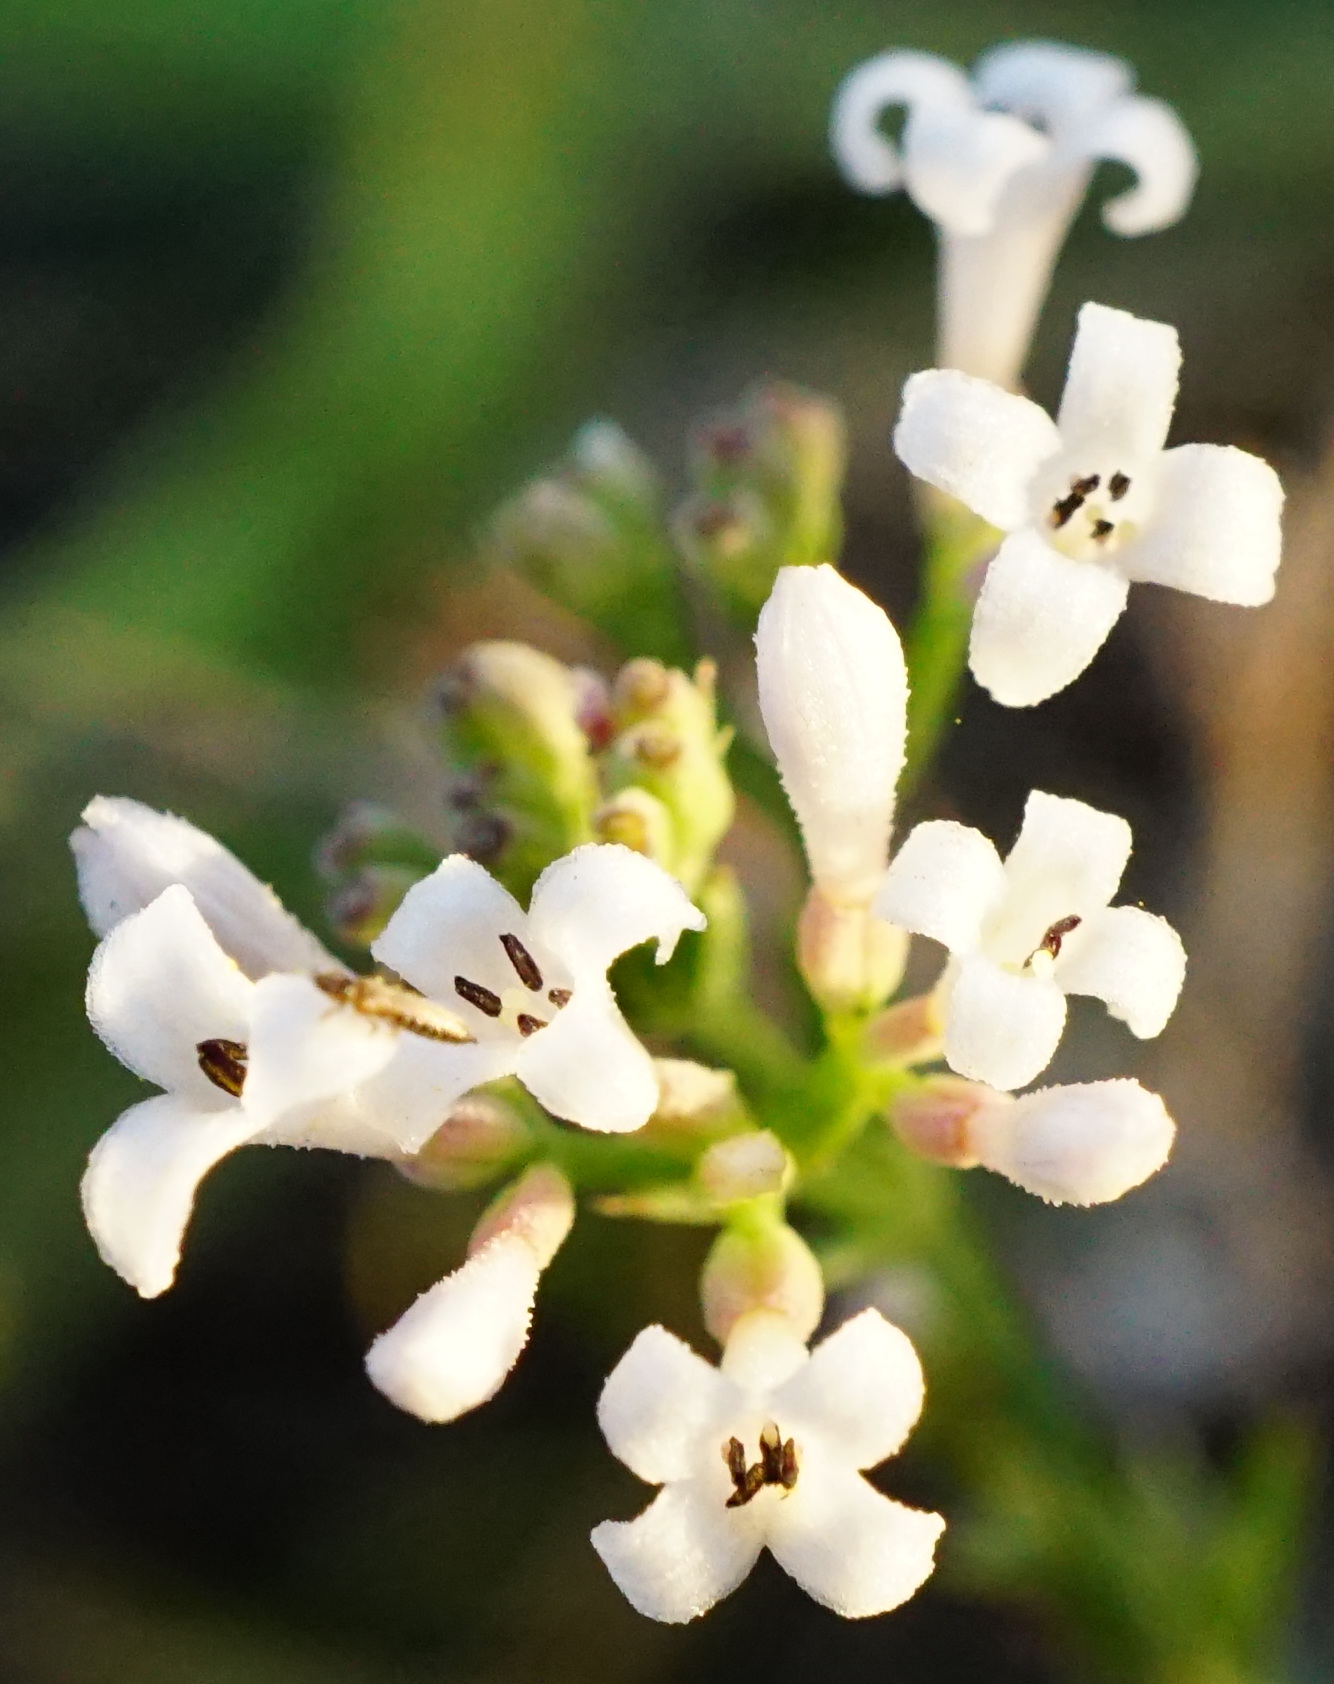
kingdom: Plantae
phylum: Tracheophyta
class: Magnoliopsida
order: Gentianales
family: Rubiaceae
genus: Cynanchica
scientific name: Cynanchica pyrenaica
